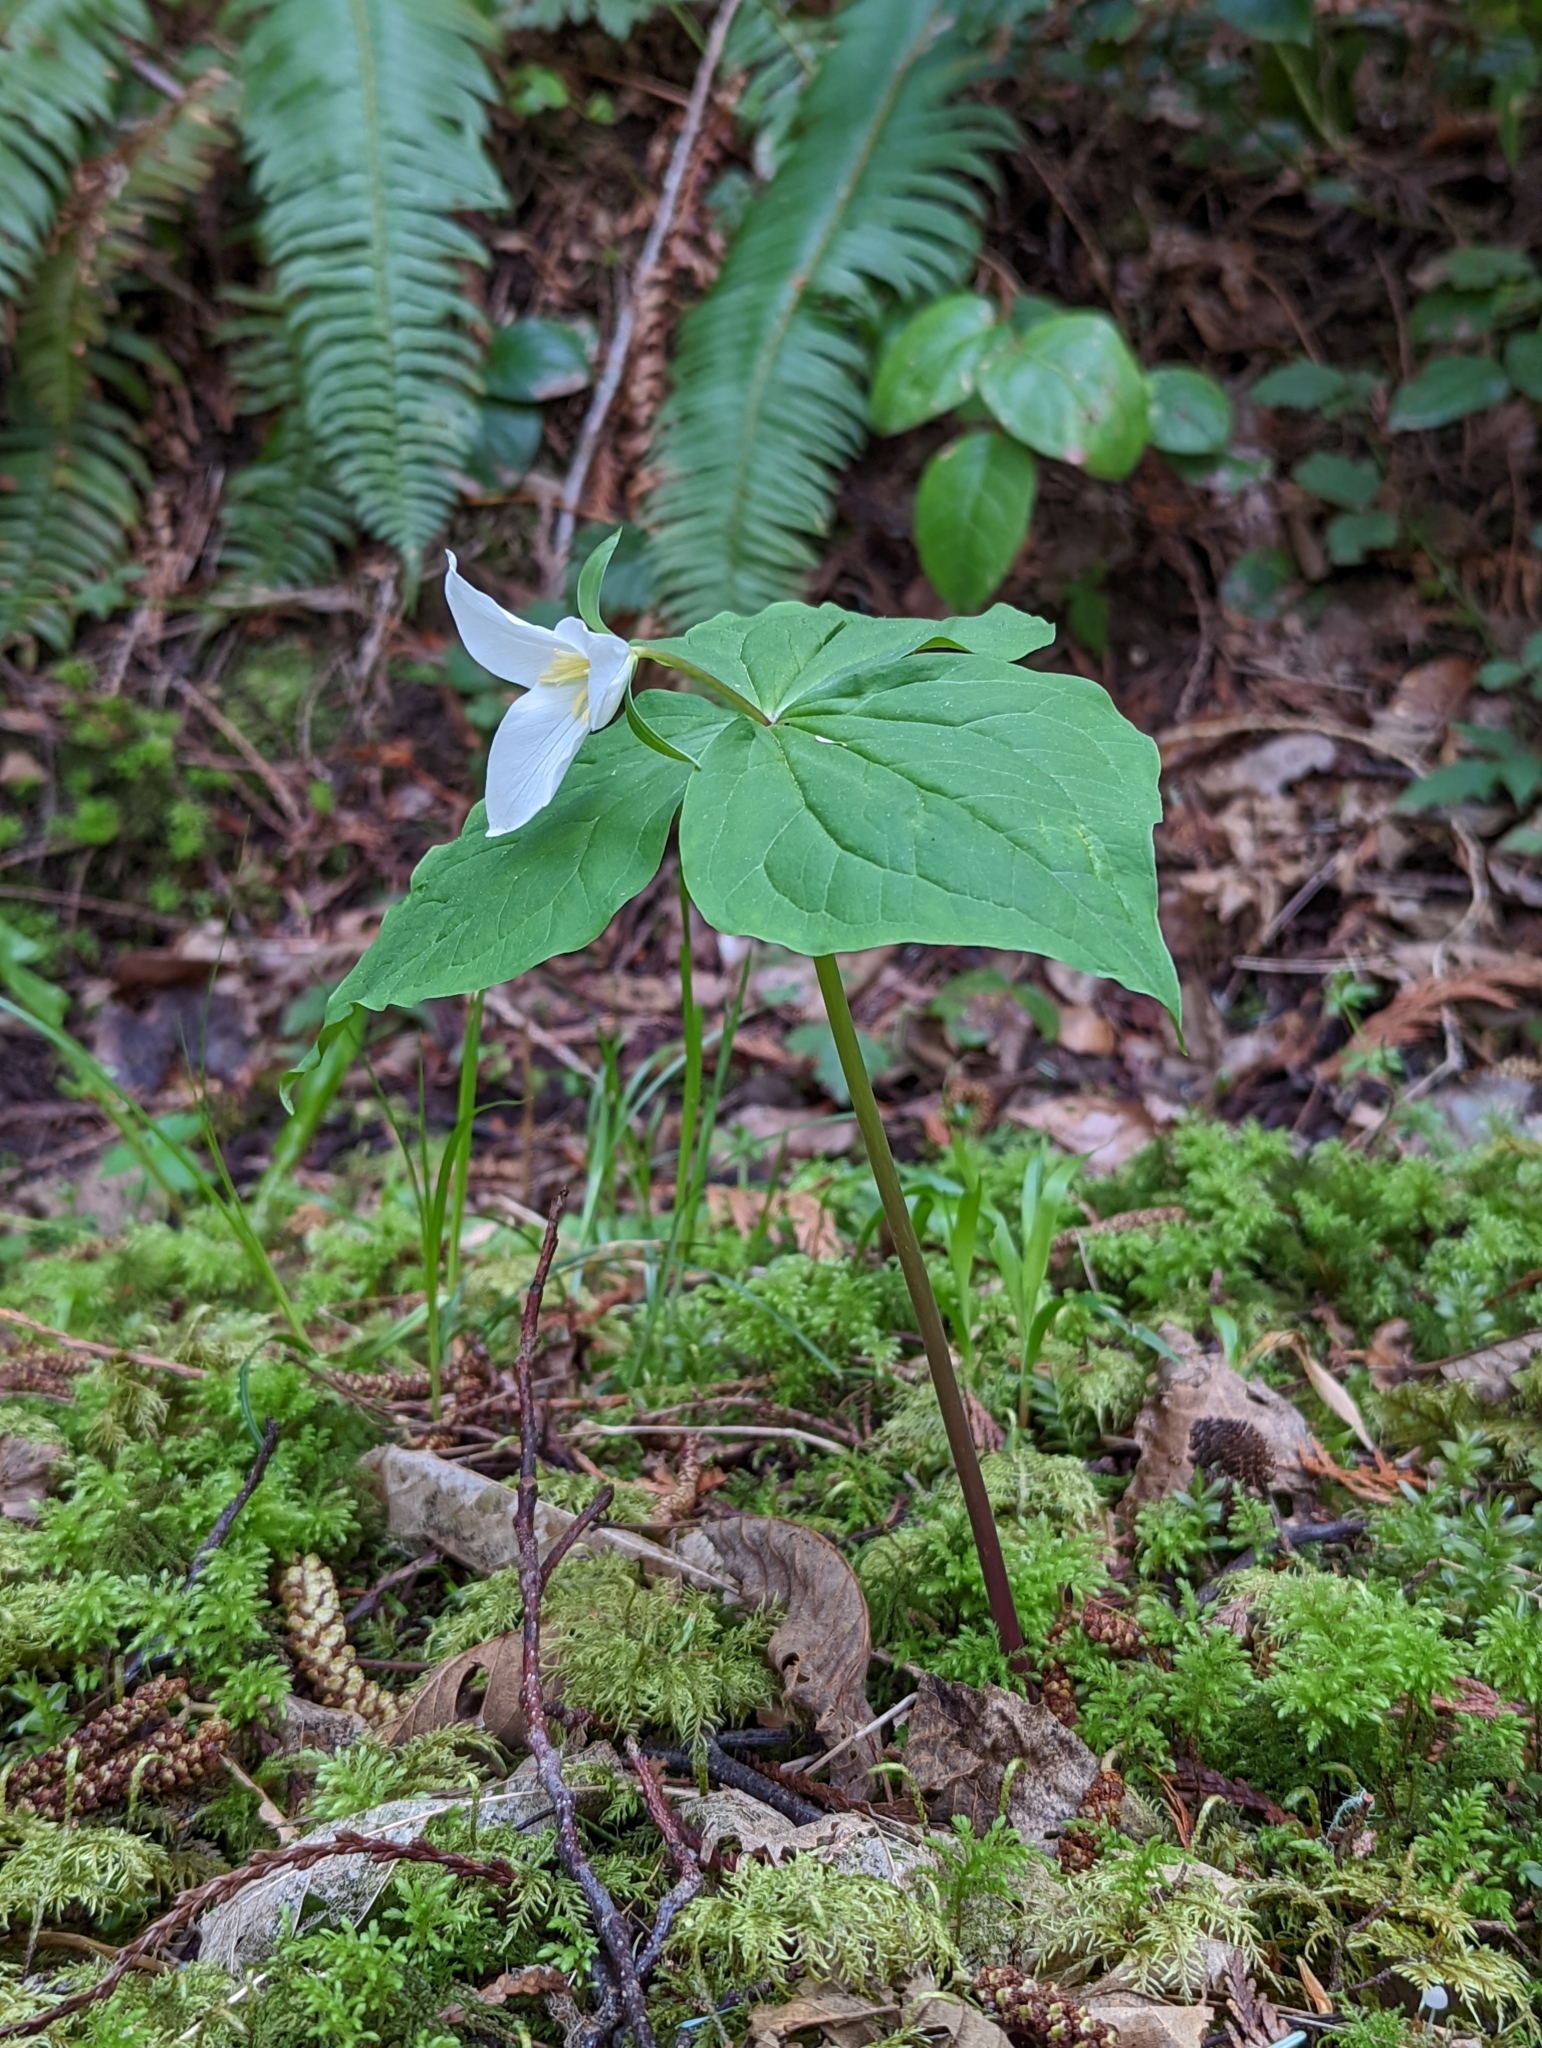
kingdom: Plantae
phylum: Tracheophyta
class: Liliopsida
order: Liliales
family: Melanthiaceae
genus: Trillium
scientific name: Trillium ovatum
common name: Pacific trillium
